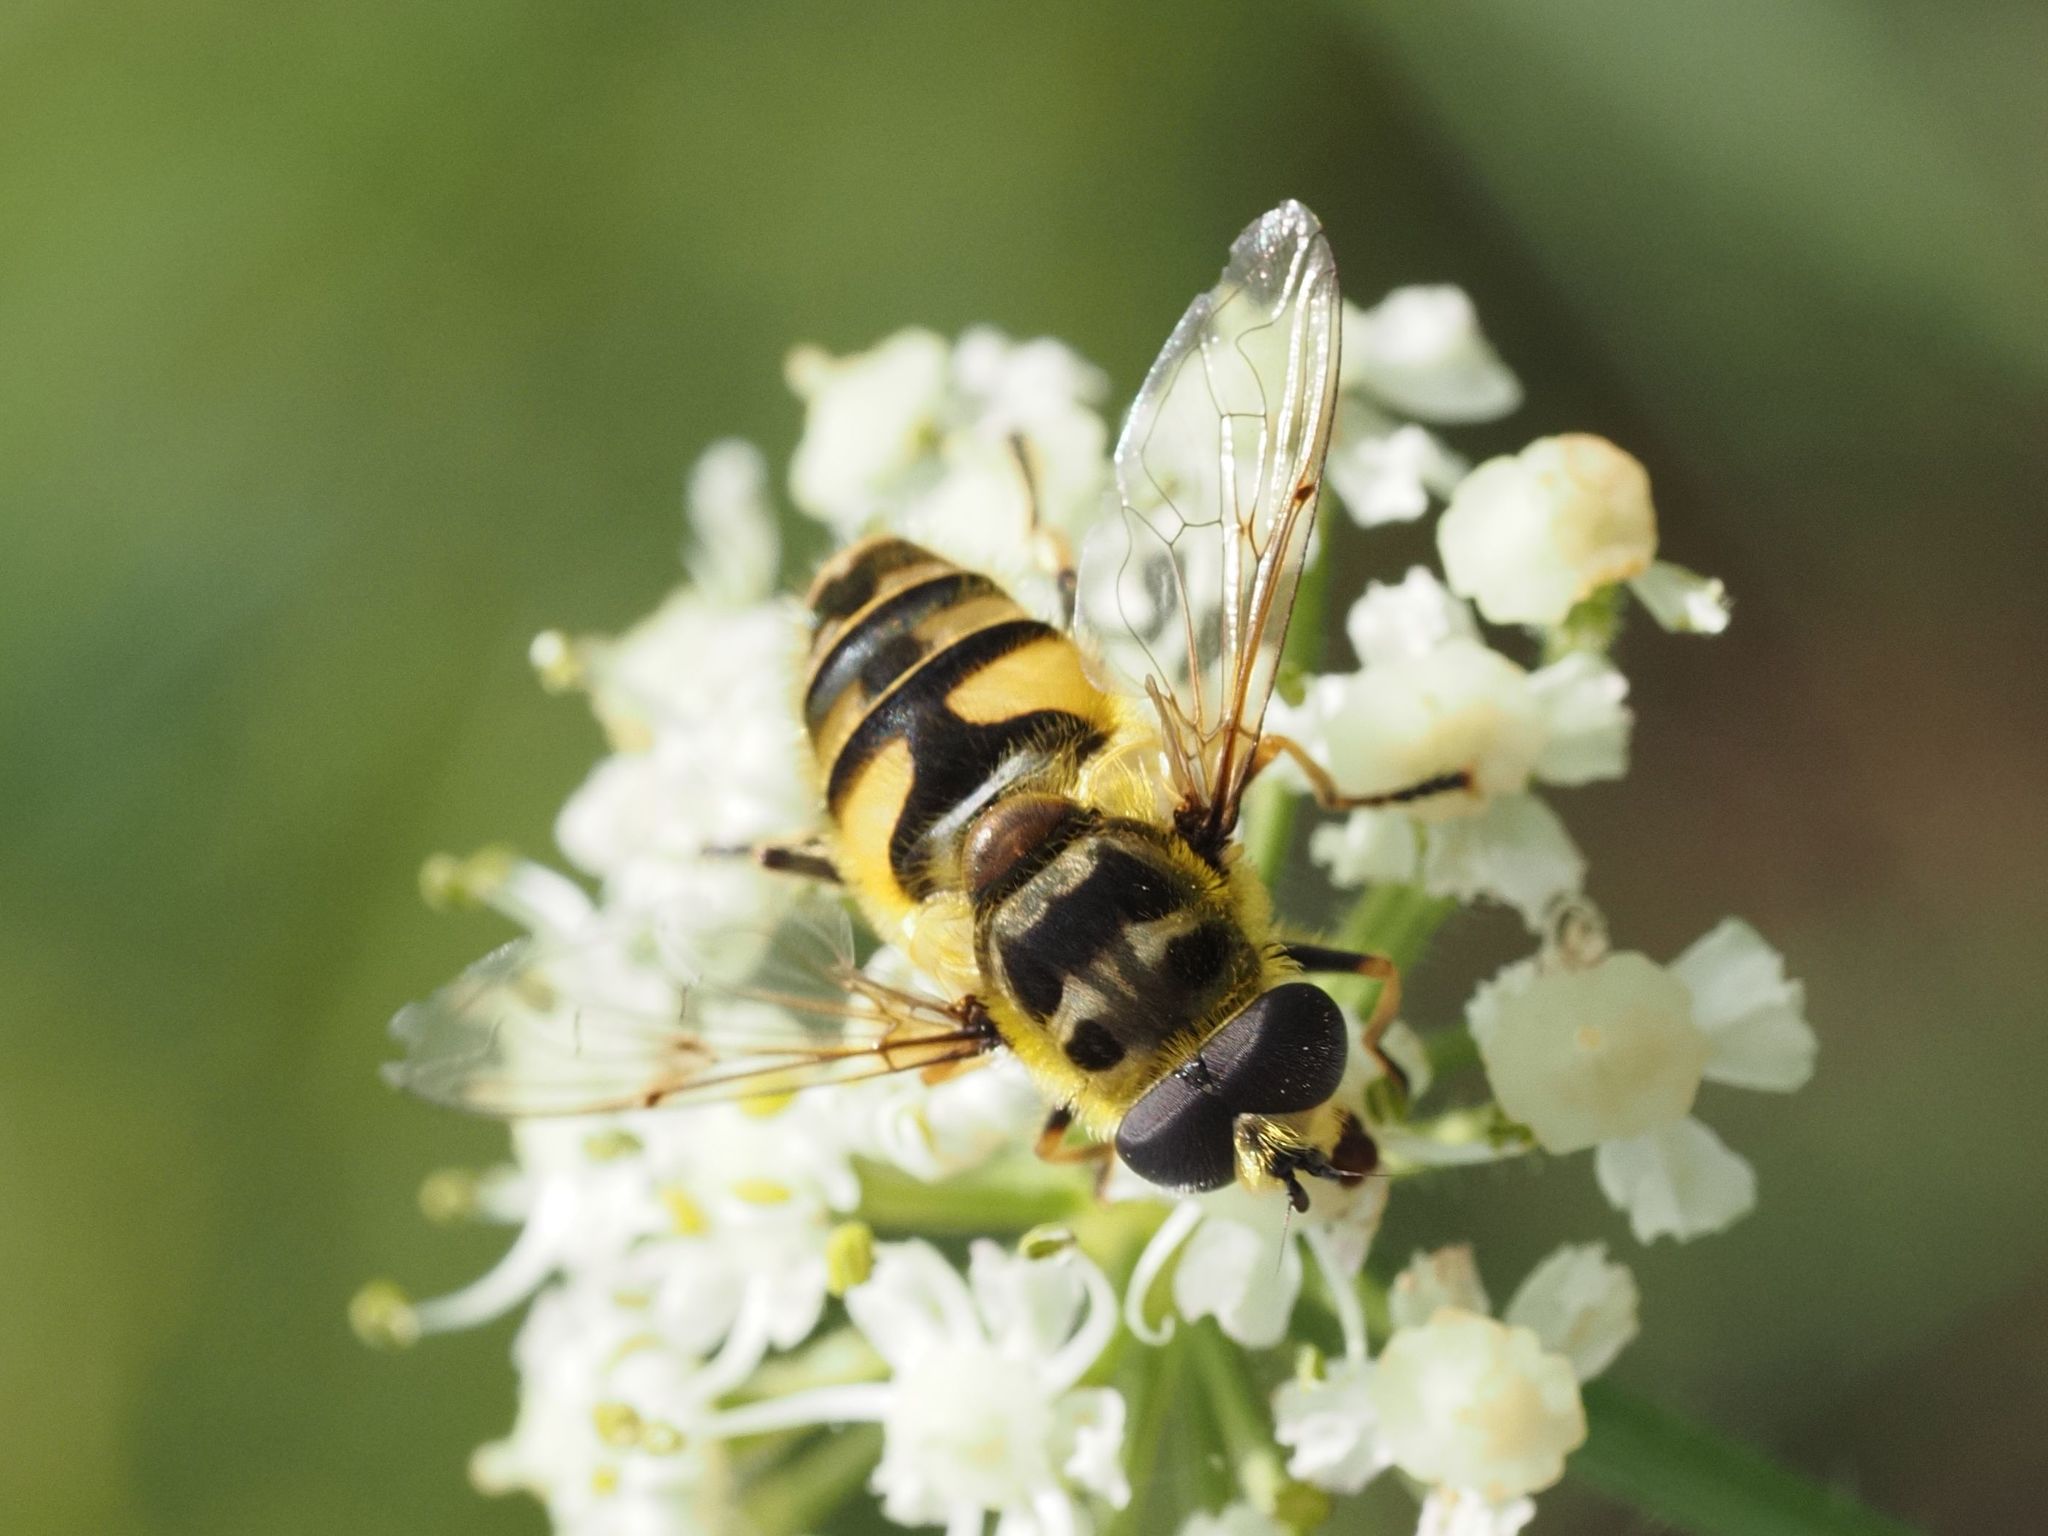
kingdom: Animalia
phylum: Arthropoda
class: Insecta
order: Diptera
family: Syrphidae
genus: Myathropa
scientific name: Myathropa florea
